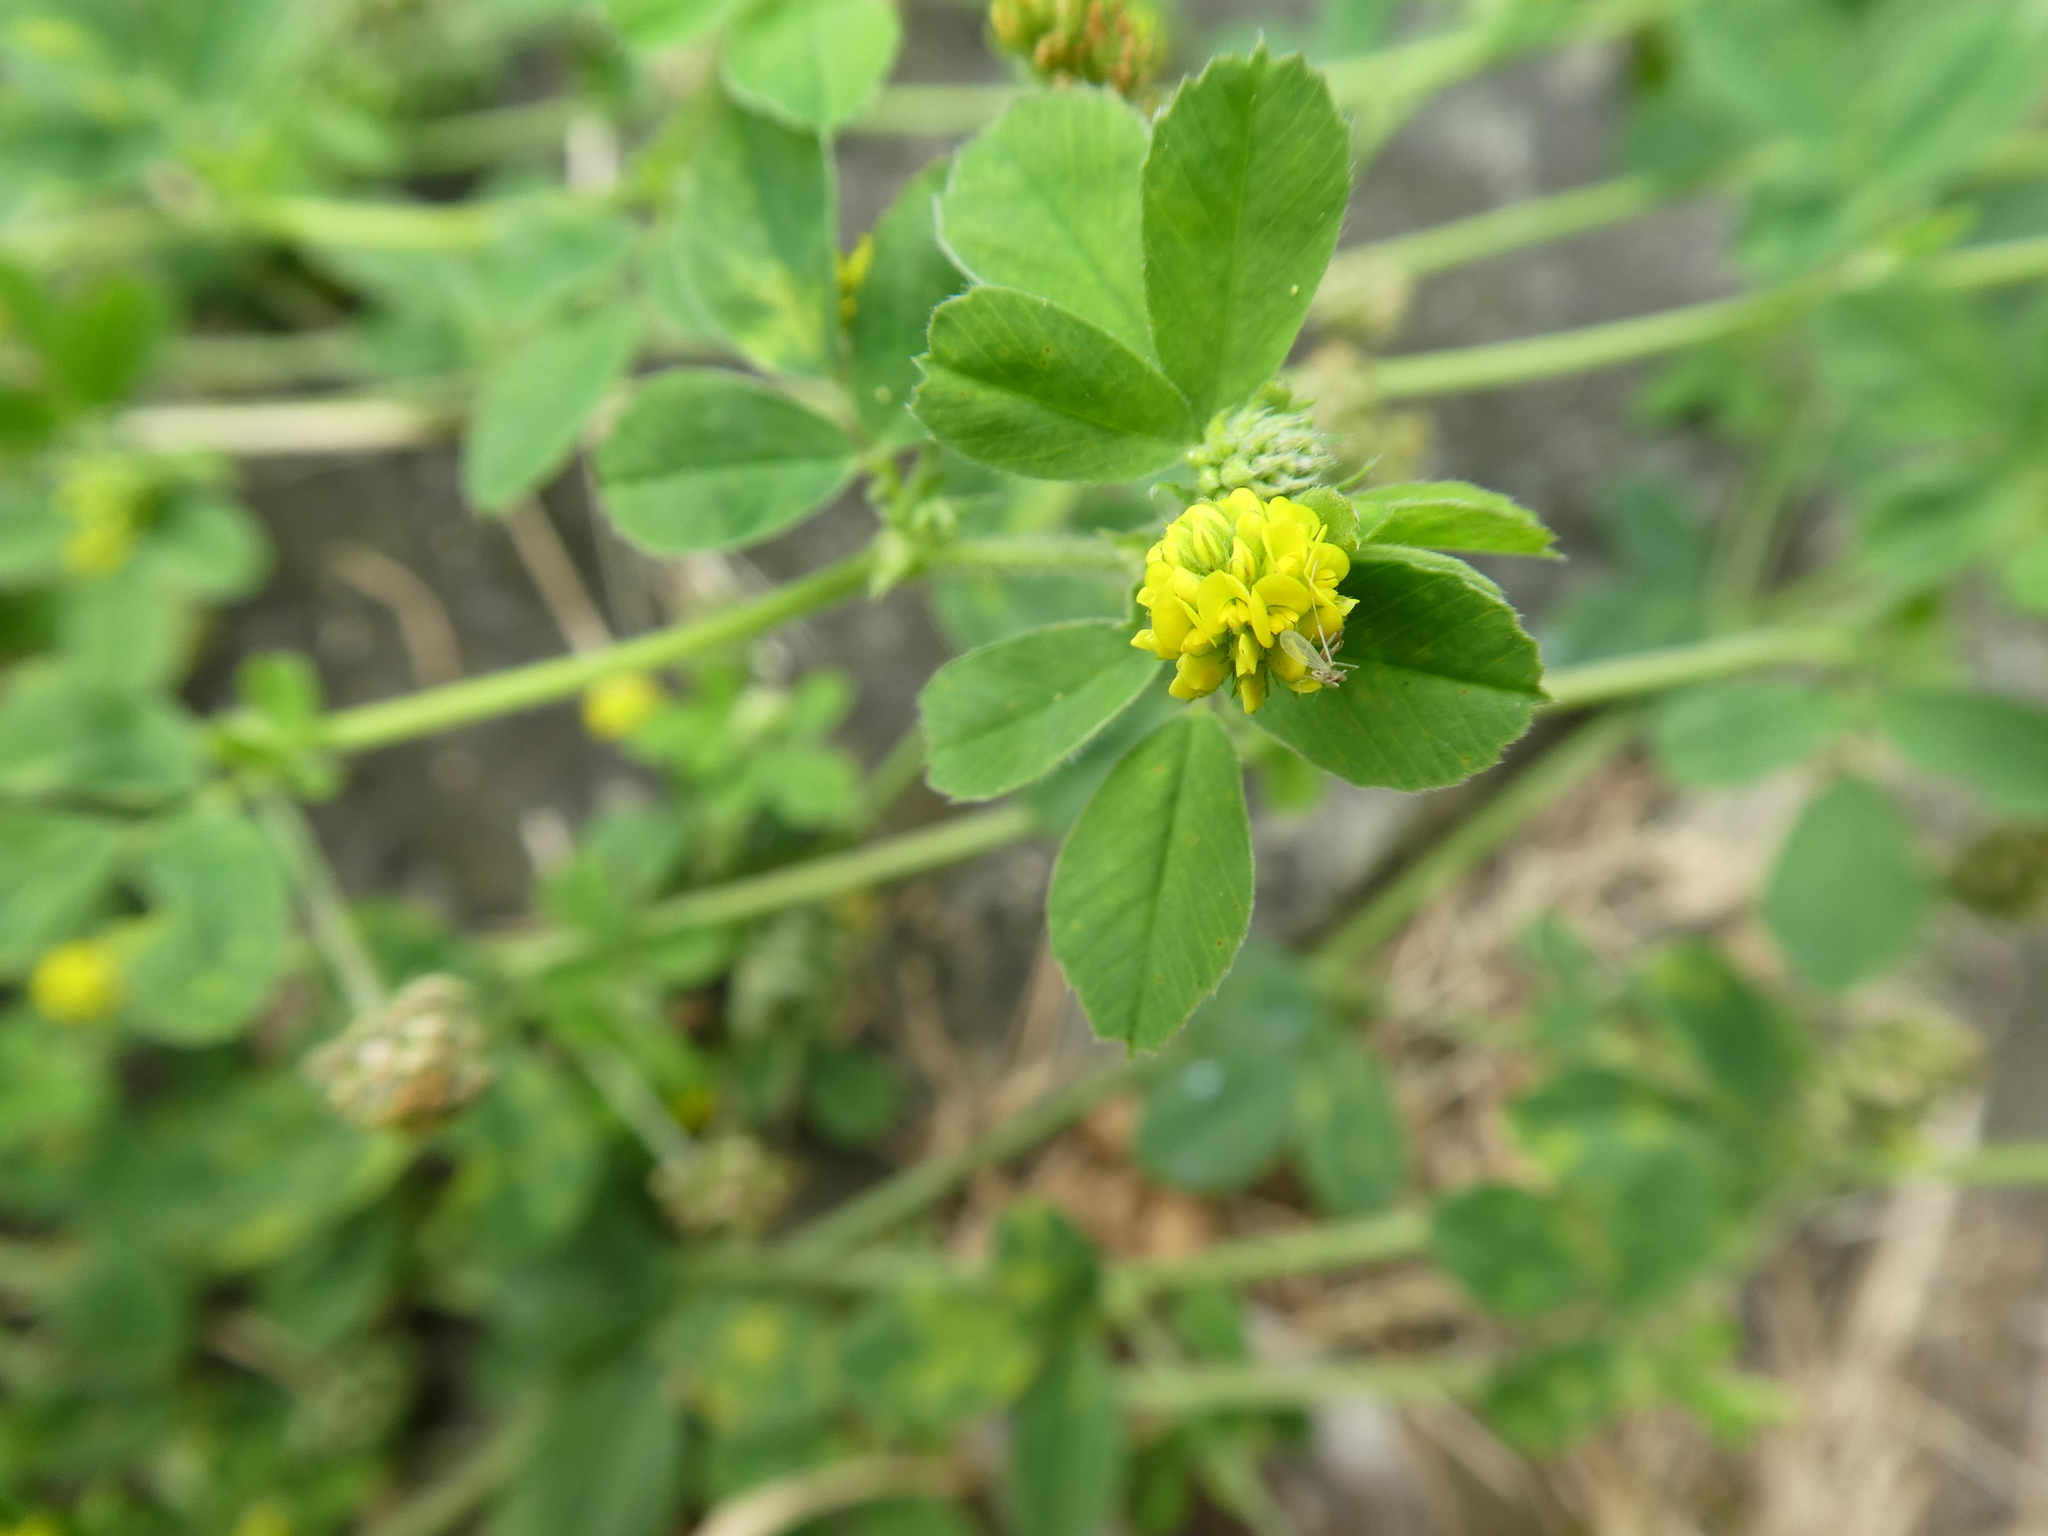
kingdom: Plantae
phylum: Tracheophyta
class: Magnoliopsida
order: Fabales
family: Fabaceae
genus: Medicago
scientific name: Medicago lupulina
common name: Black medick
